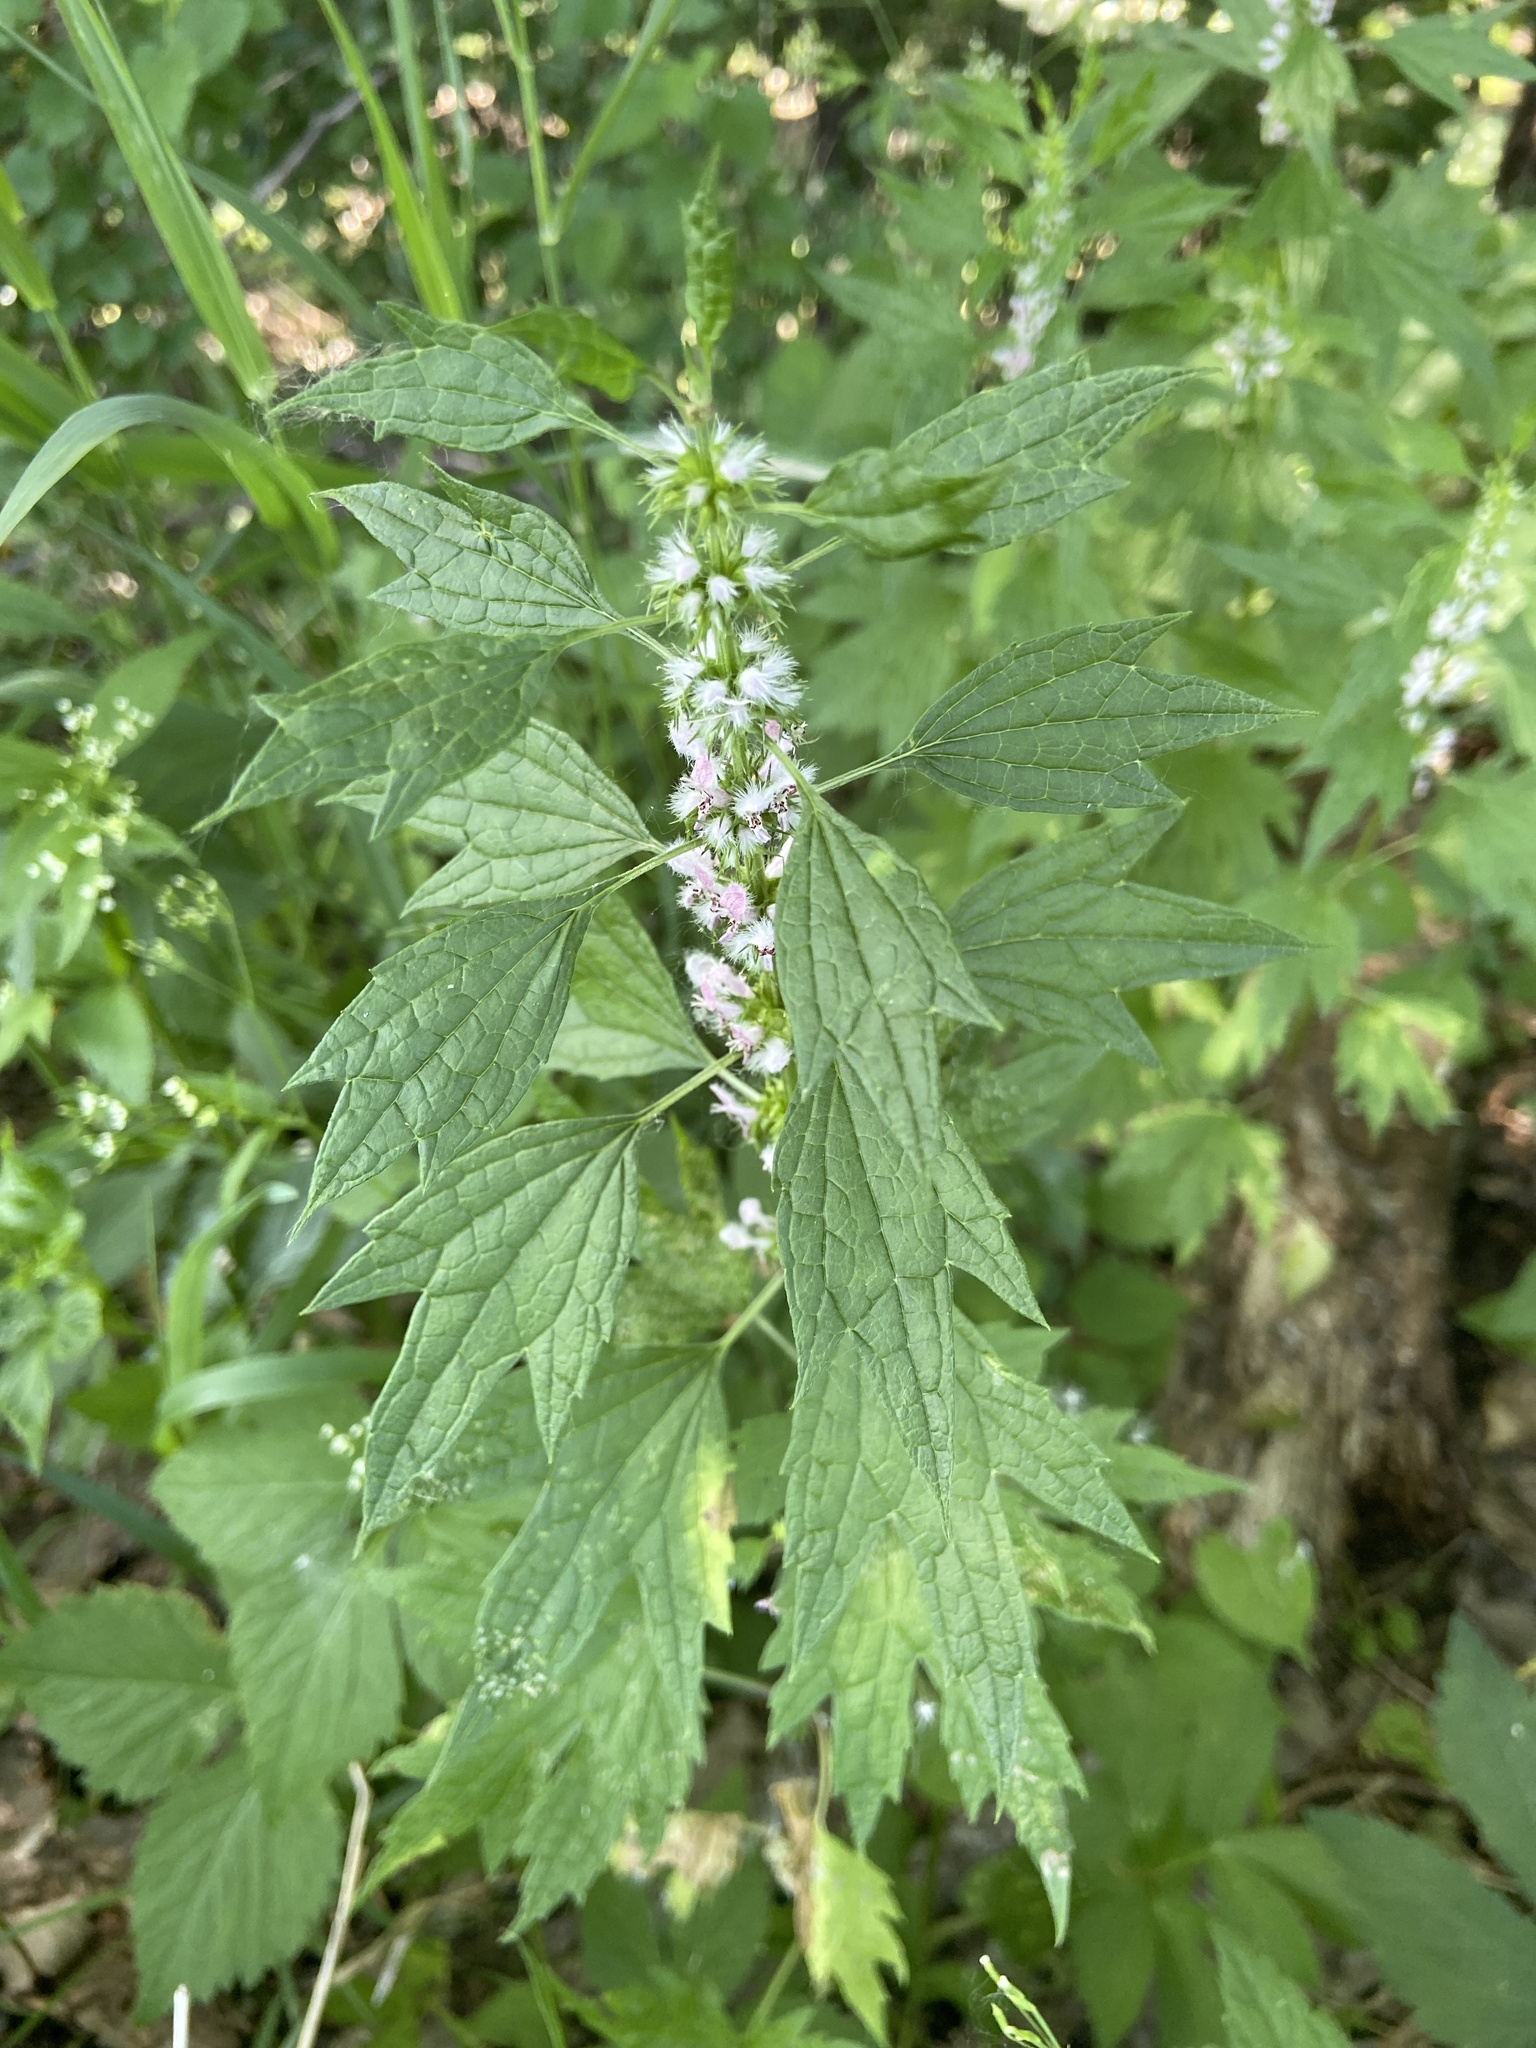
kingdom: Plantae
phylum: Tracheophyta
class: Magnoliopsida
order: Lamiales
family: Lamiaceae
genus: Leonurus
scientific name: Leonurus cardiaca
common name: Motherwort
